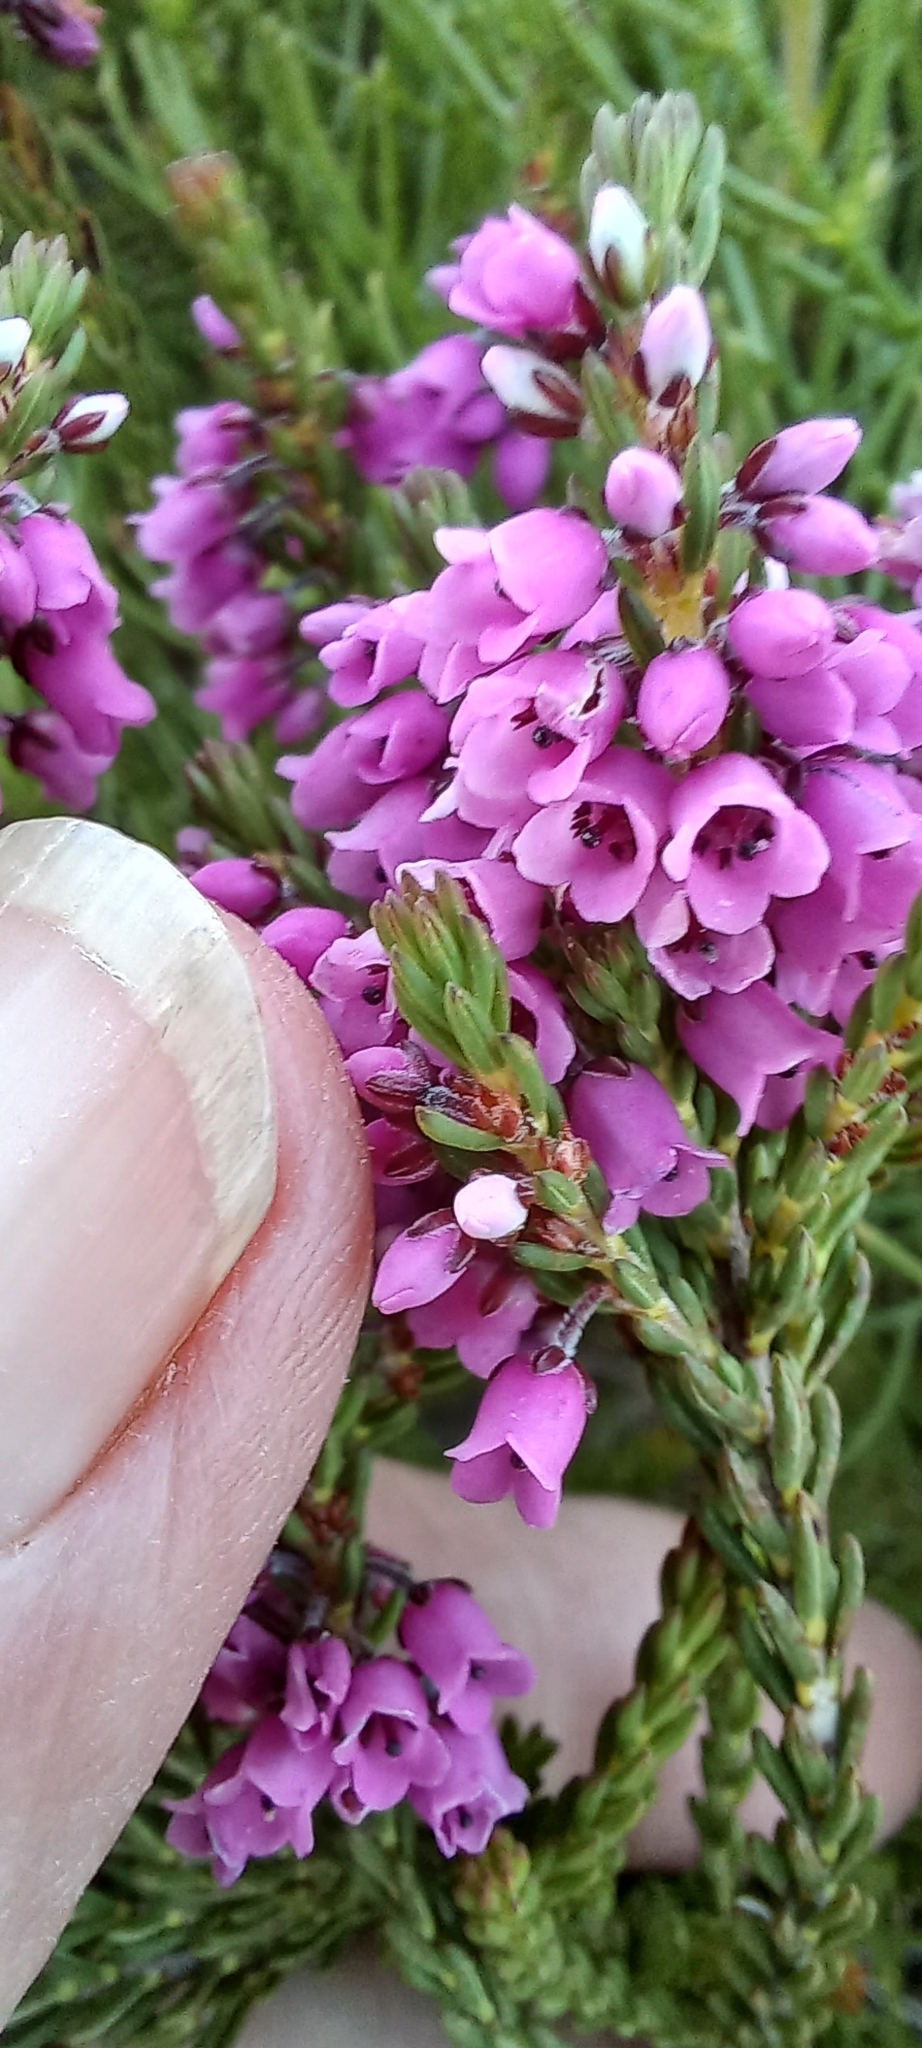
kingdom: Plantae
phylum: Tracheophyta
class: Magnoliopsida
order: Ericales
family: Ericaceae
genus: Erica
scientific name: Erica pulchella
